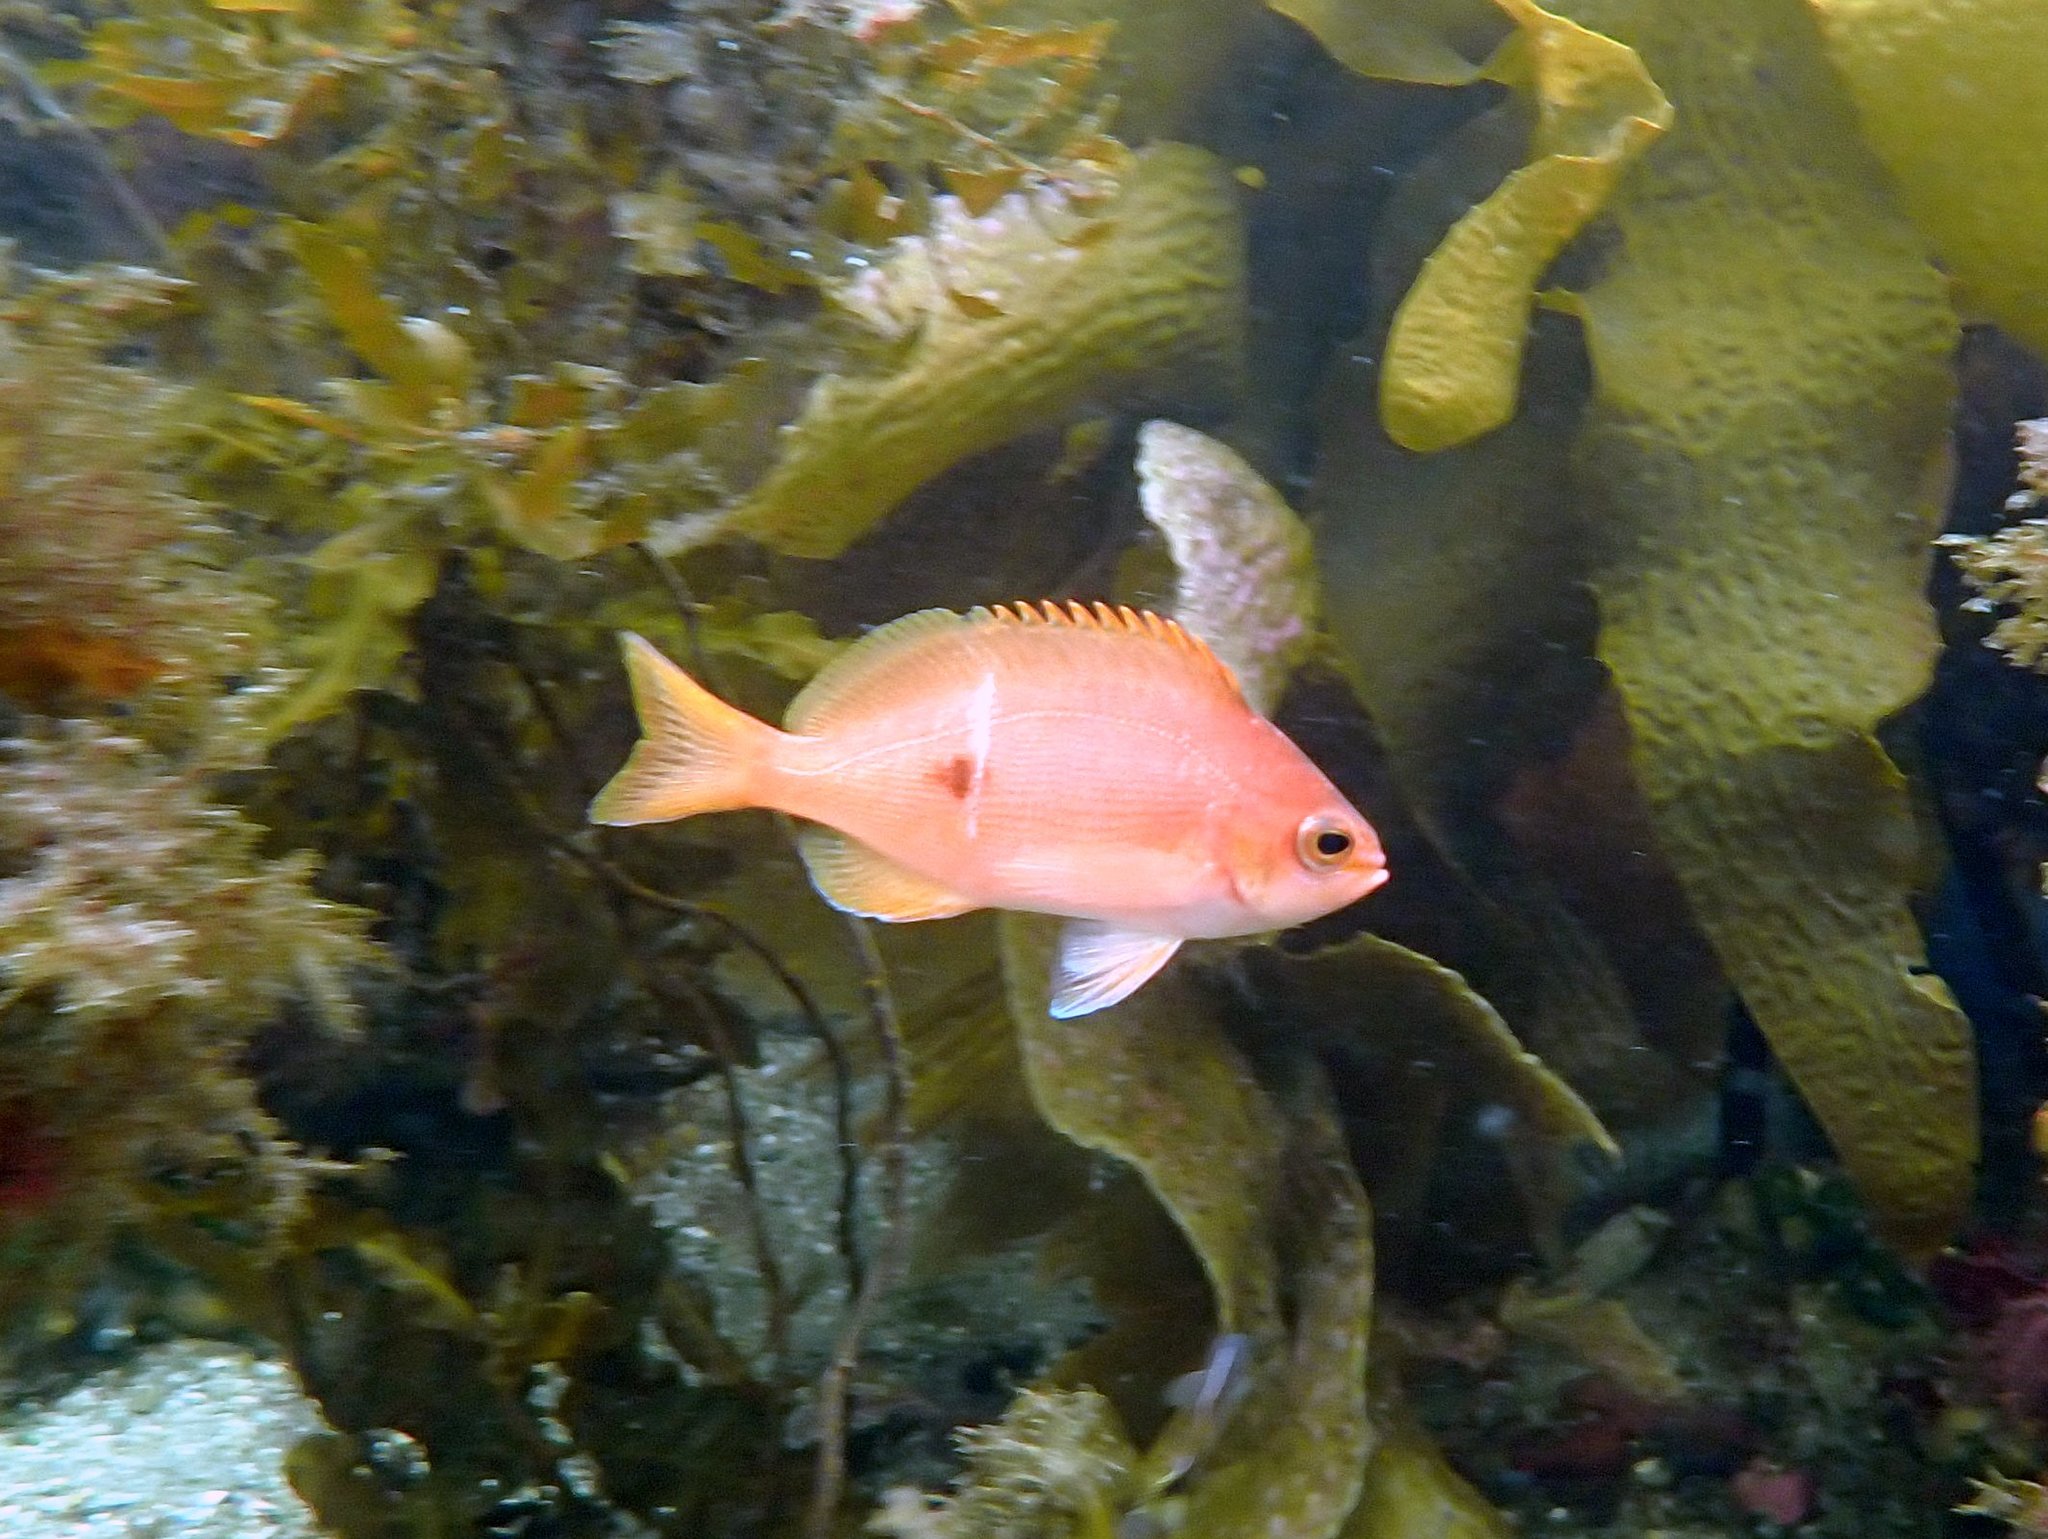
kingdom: Animalia
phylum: Chordata
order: Perciformes
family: Serranidae
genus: Caesioperca
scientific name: Caesioperca lepidoptera
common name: Butterfly perch
